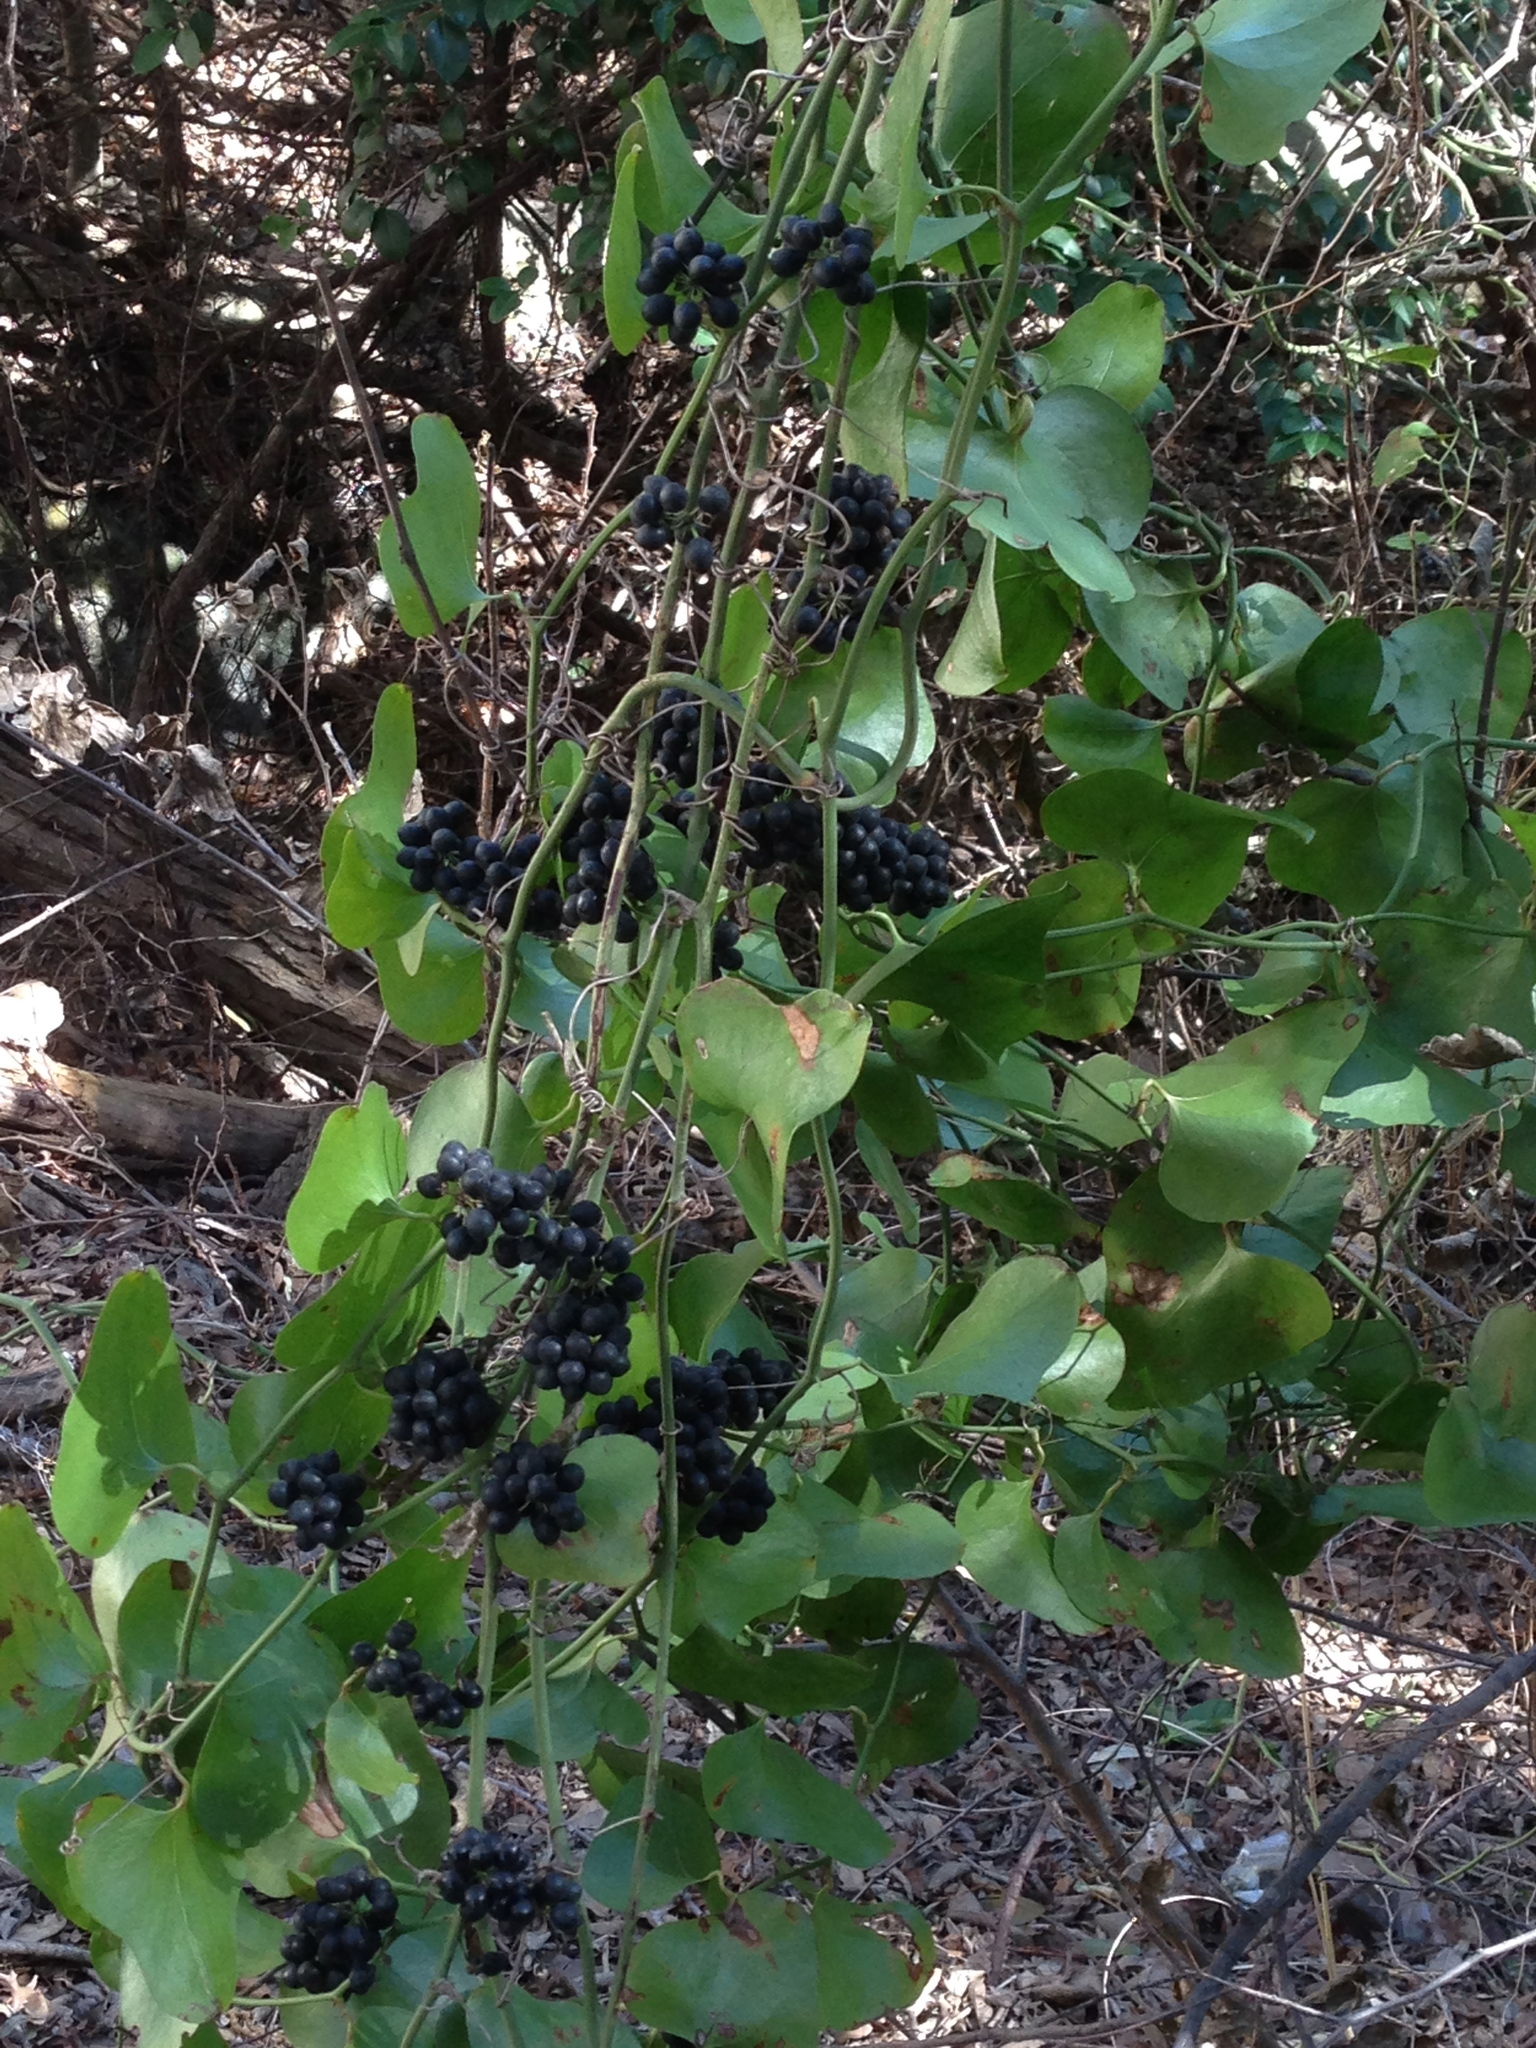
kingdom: Plantae
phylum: Tracheophyta
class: Liliopsida
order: Liliales
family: Smilacaceae
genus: Smilax
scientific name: Smilax bona-nox
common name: Catbrier
